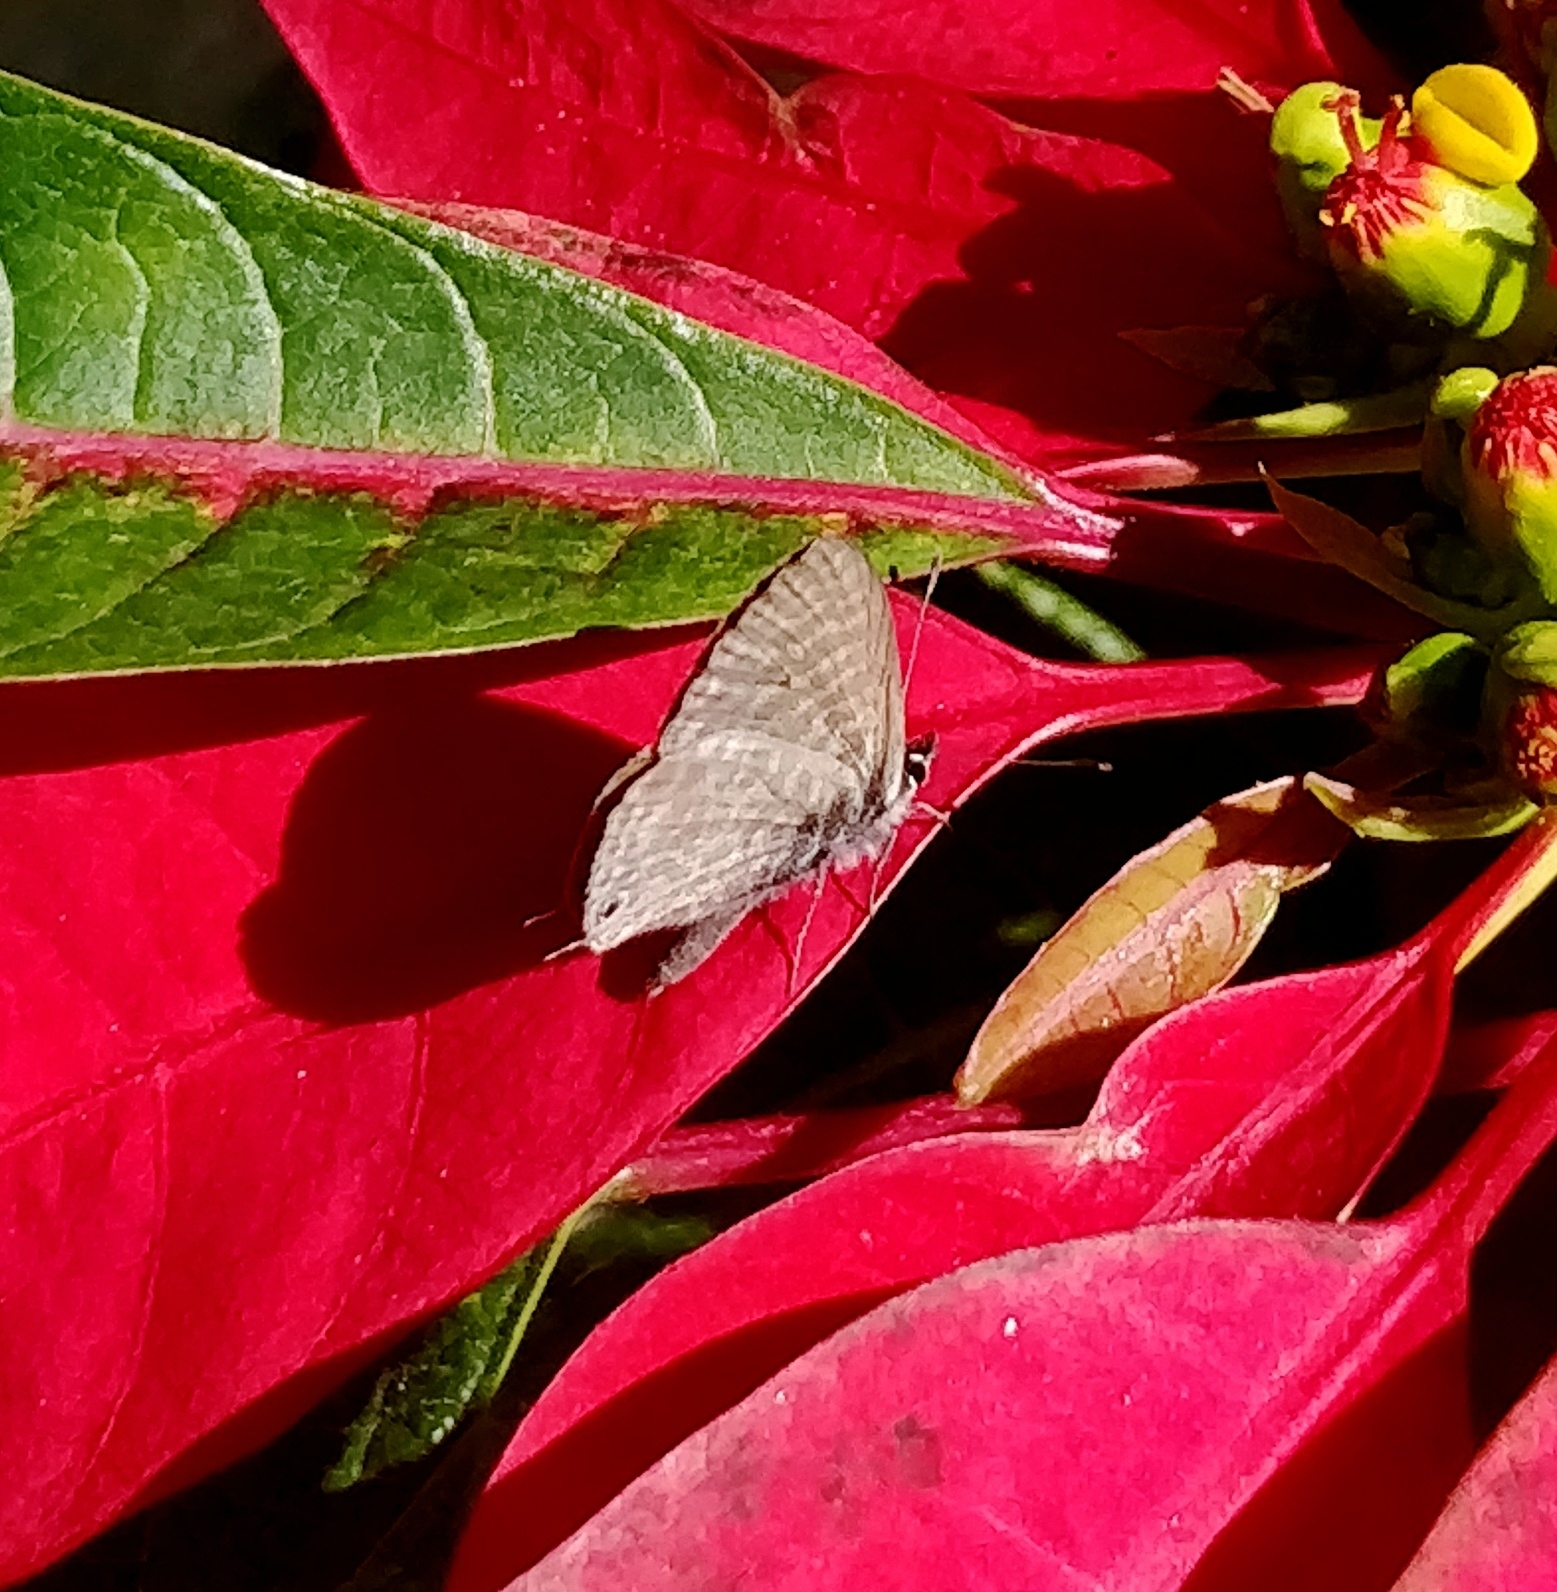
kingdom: Animalia
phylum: Arthropoda
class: Insecta
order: Lepidoptera
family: Lycaenidae
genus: Leptotes
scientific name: Leptotes pirithous
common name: Lang's short-tailed blue
